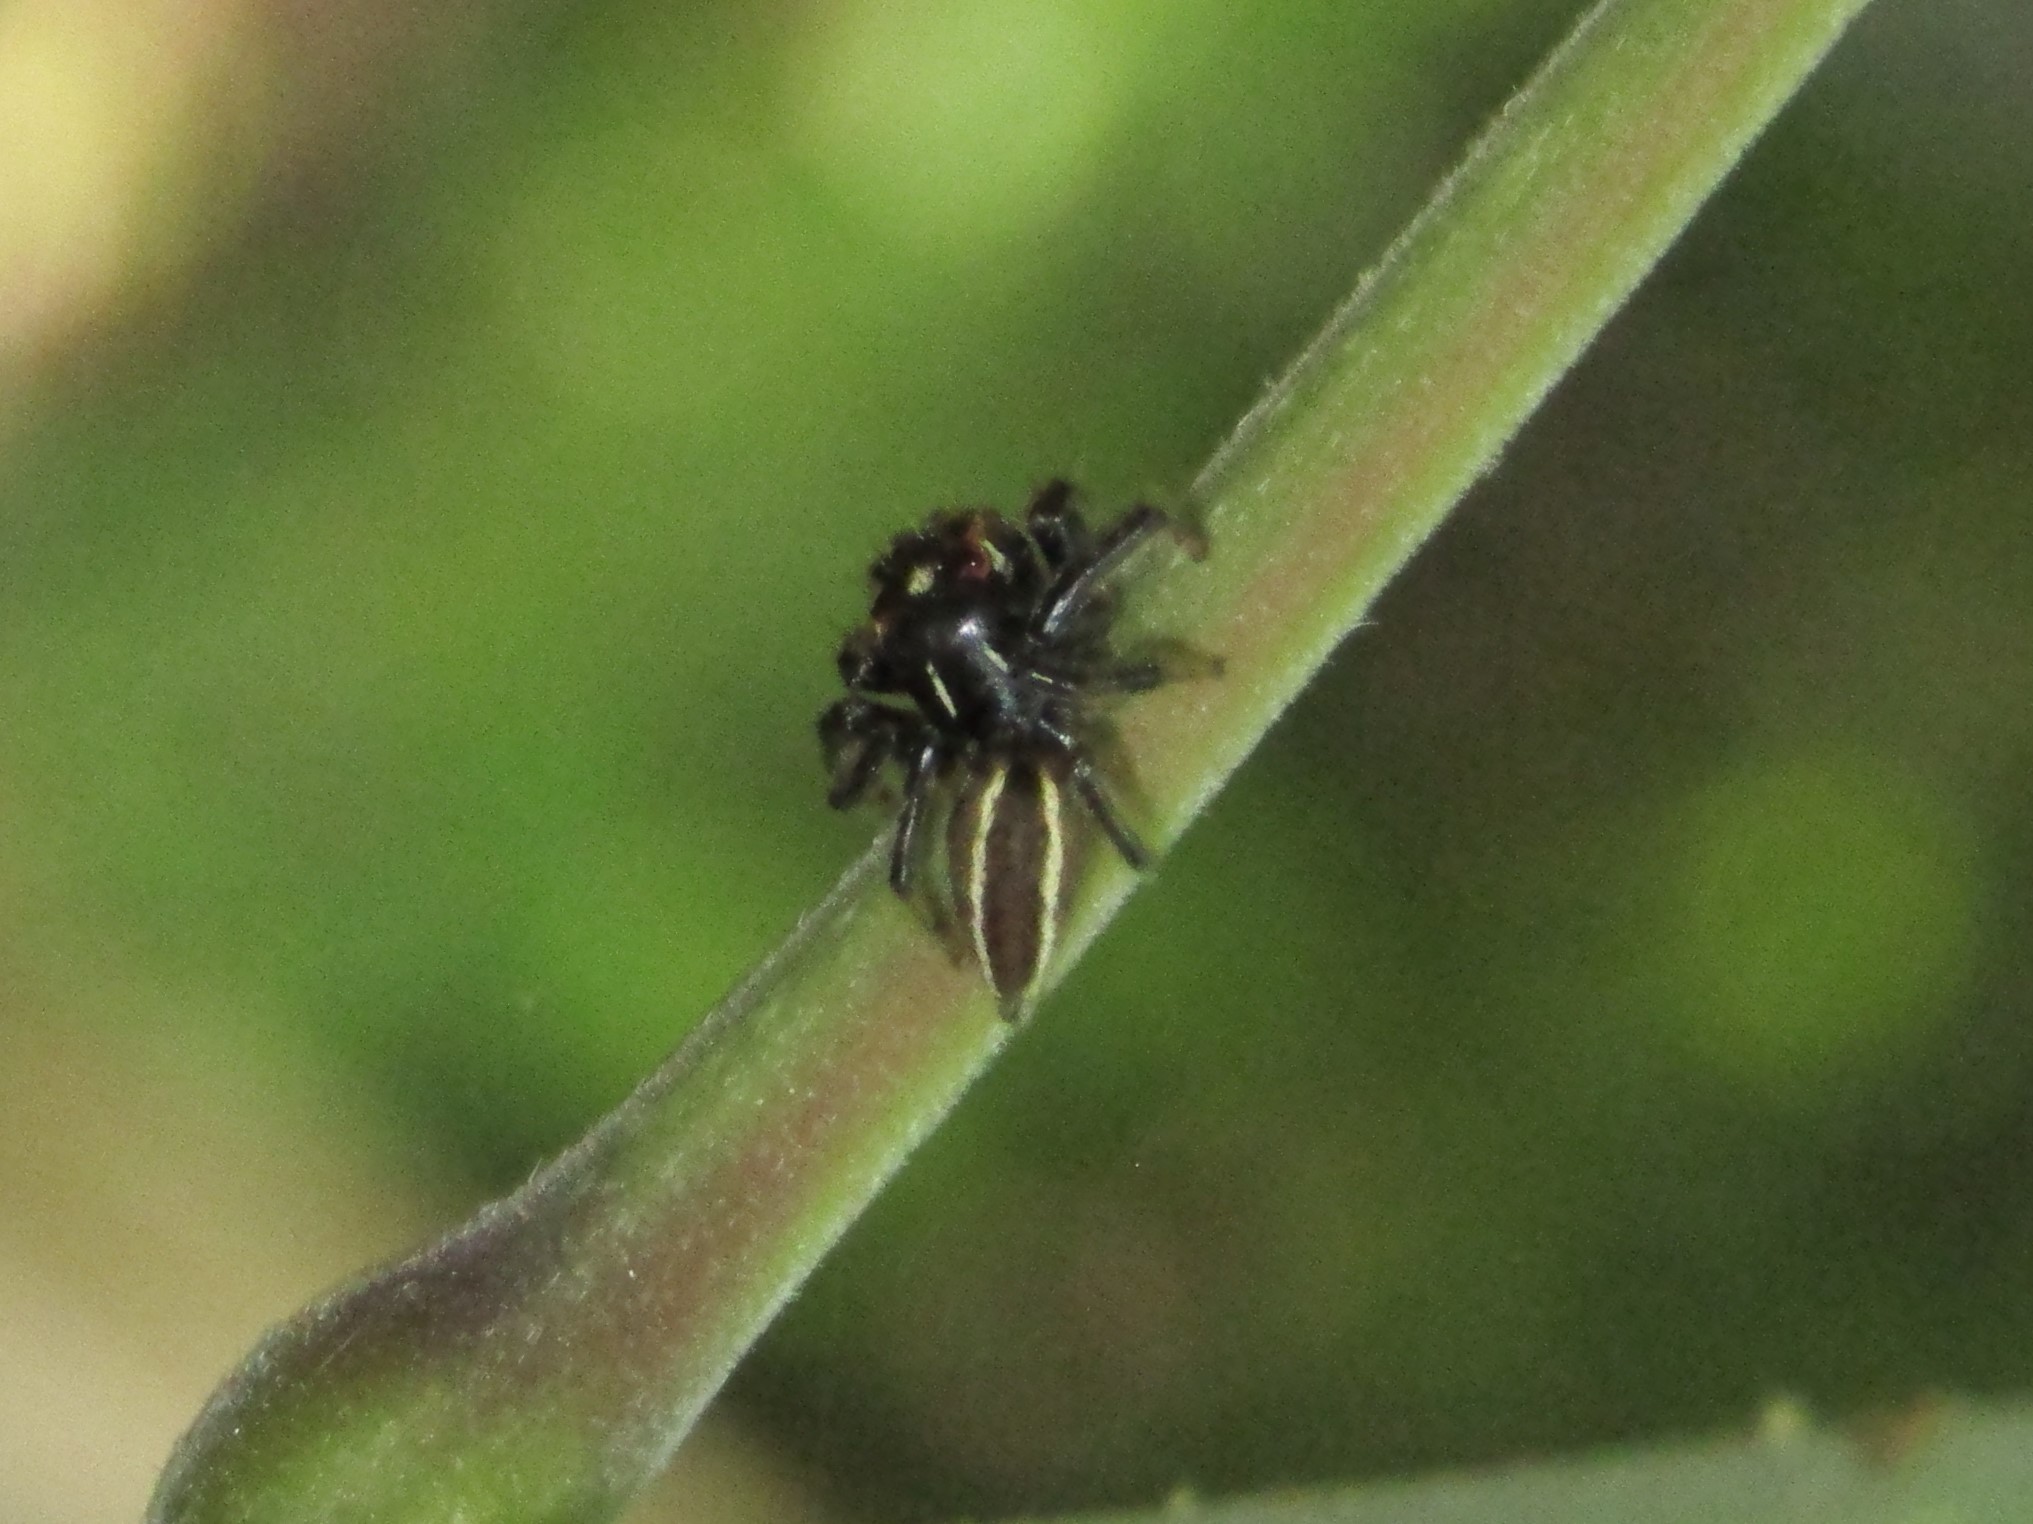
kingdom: Animalia
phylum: Arthropoda
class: Arachnida
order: Araneae
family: Salticidae
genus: Colonus
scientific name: Colonus sylvanus
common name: Jumping spiders
